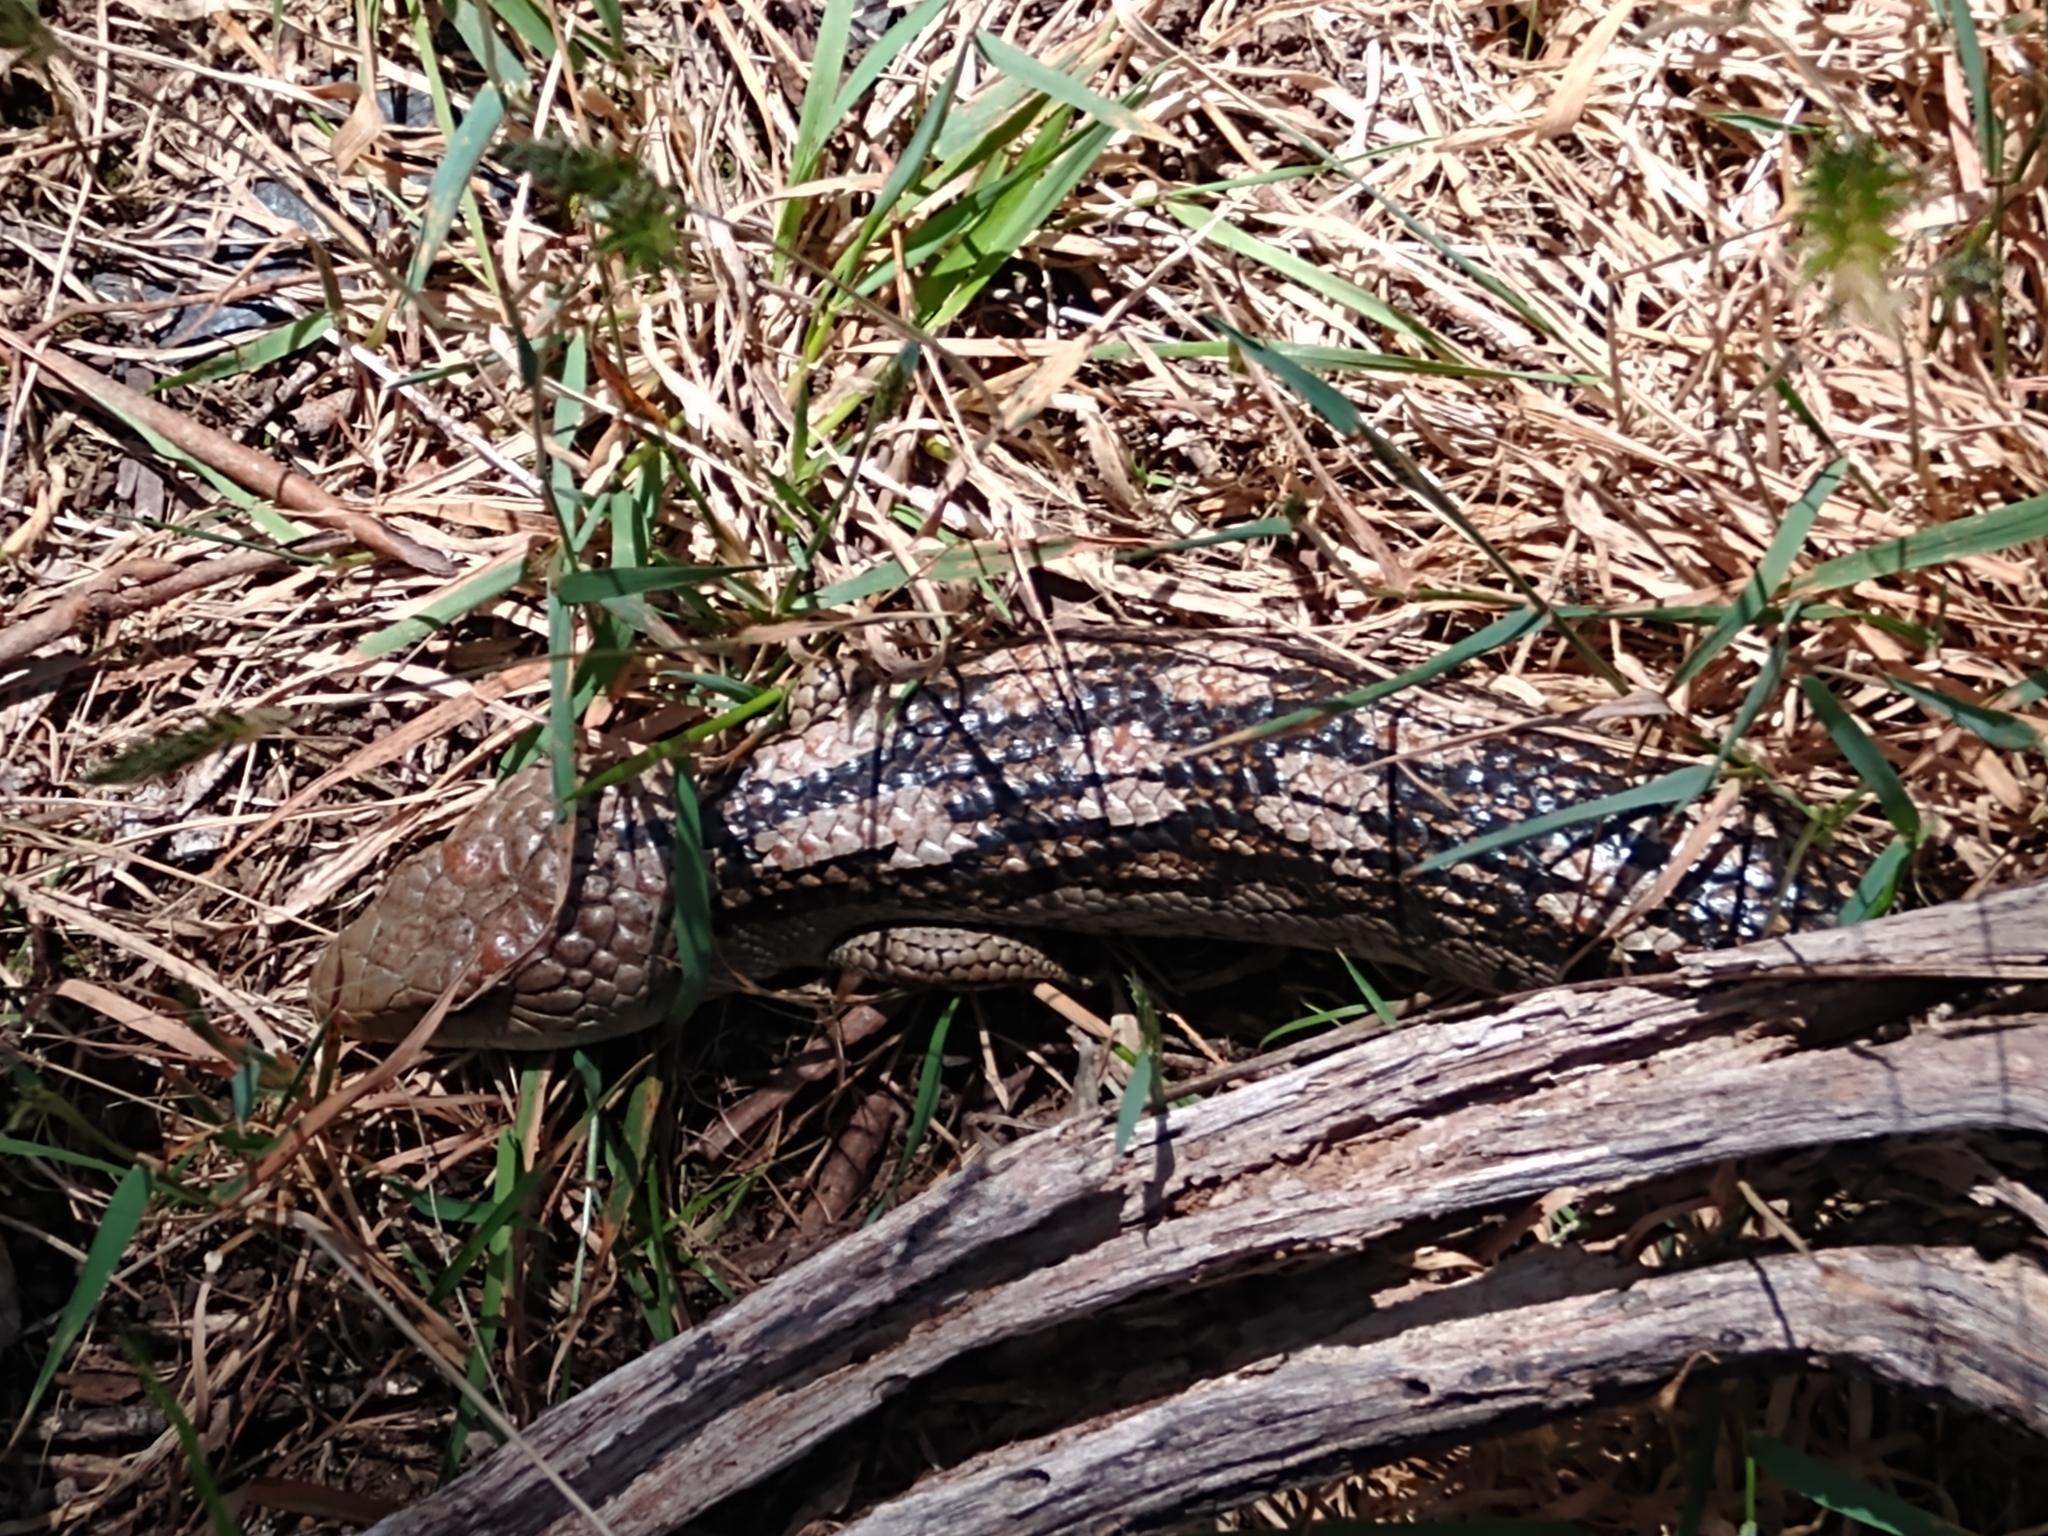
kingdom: Animalia
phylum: Chordata
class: Squamata
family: Scincidae
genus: Tiliqua
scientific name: Tiliqua nigrolutea
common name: Blotched blue-tongued lizard
